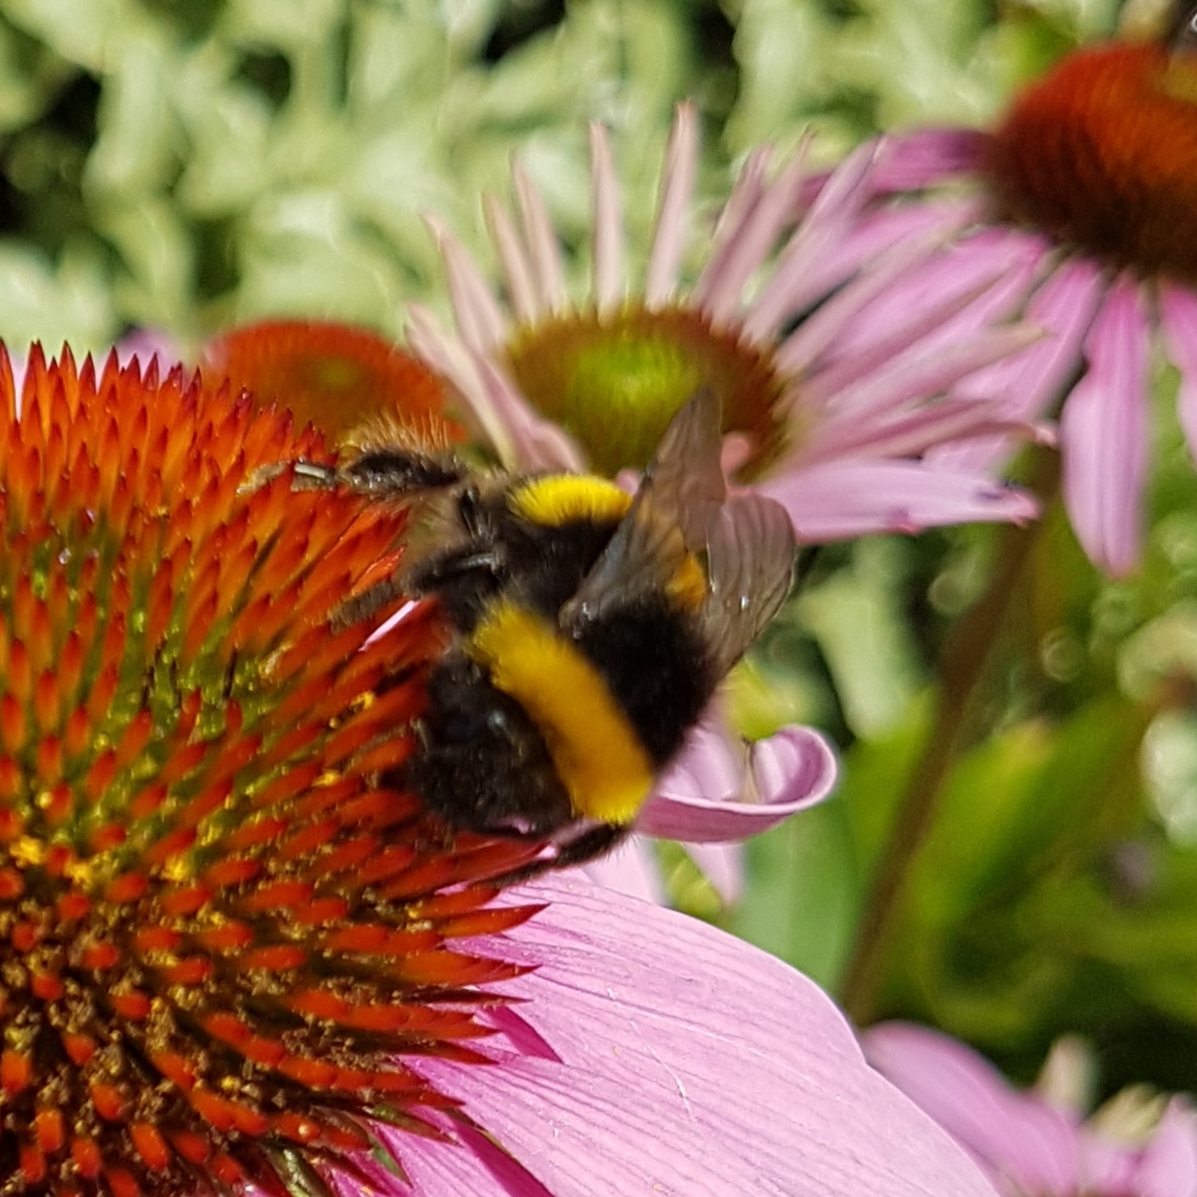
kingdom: Animalia
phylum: Arthropoda
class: Insecta
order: Hymenoptera
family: Apidae
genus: Bombus
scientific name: Bombus terrestris
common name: Buff-tailed bumblebee
